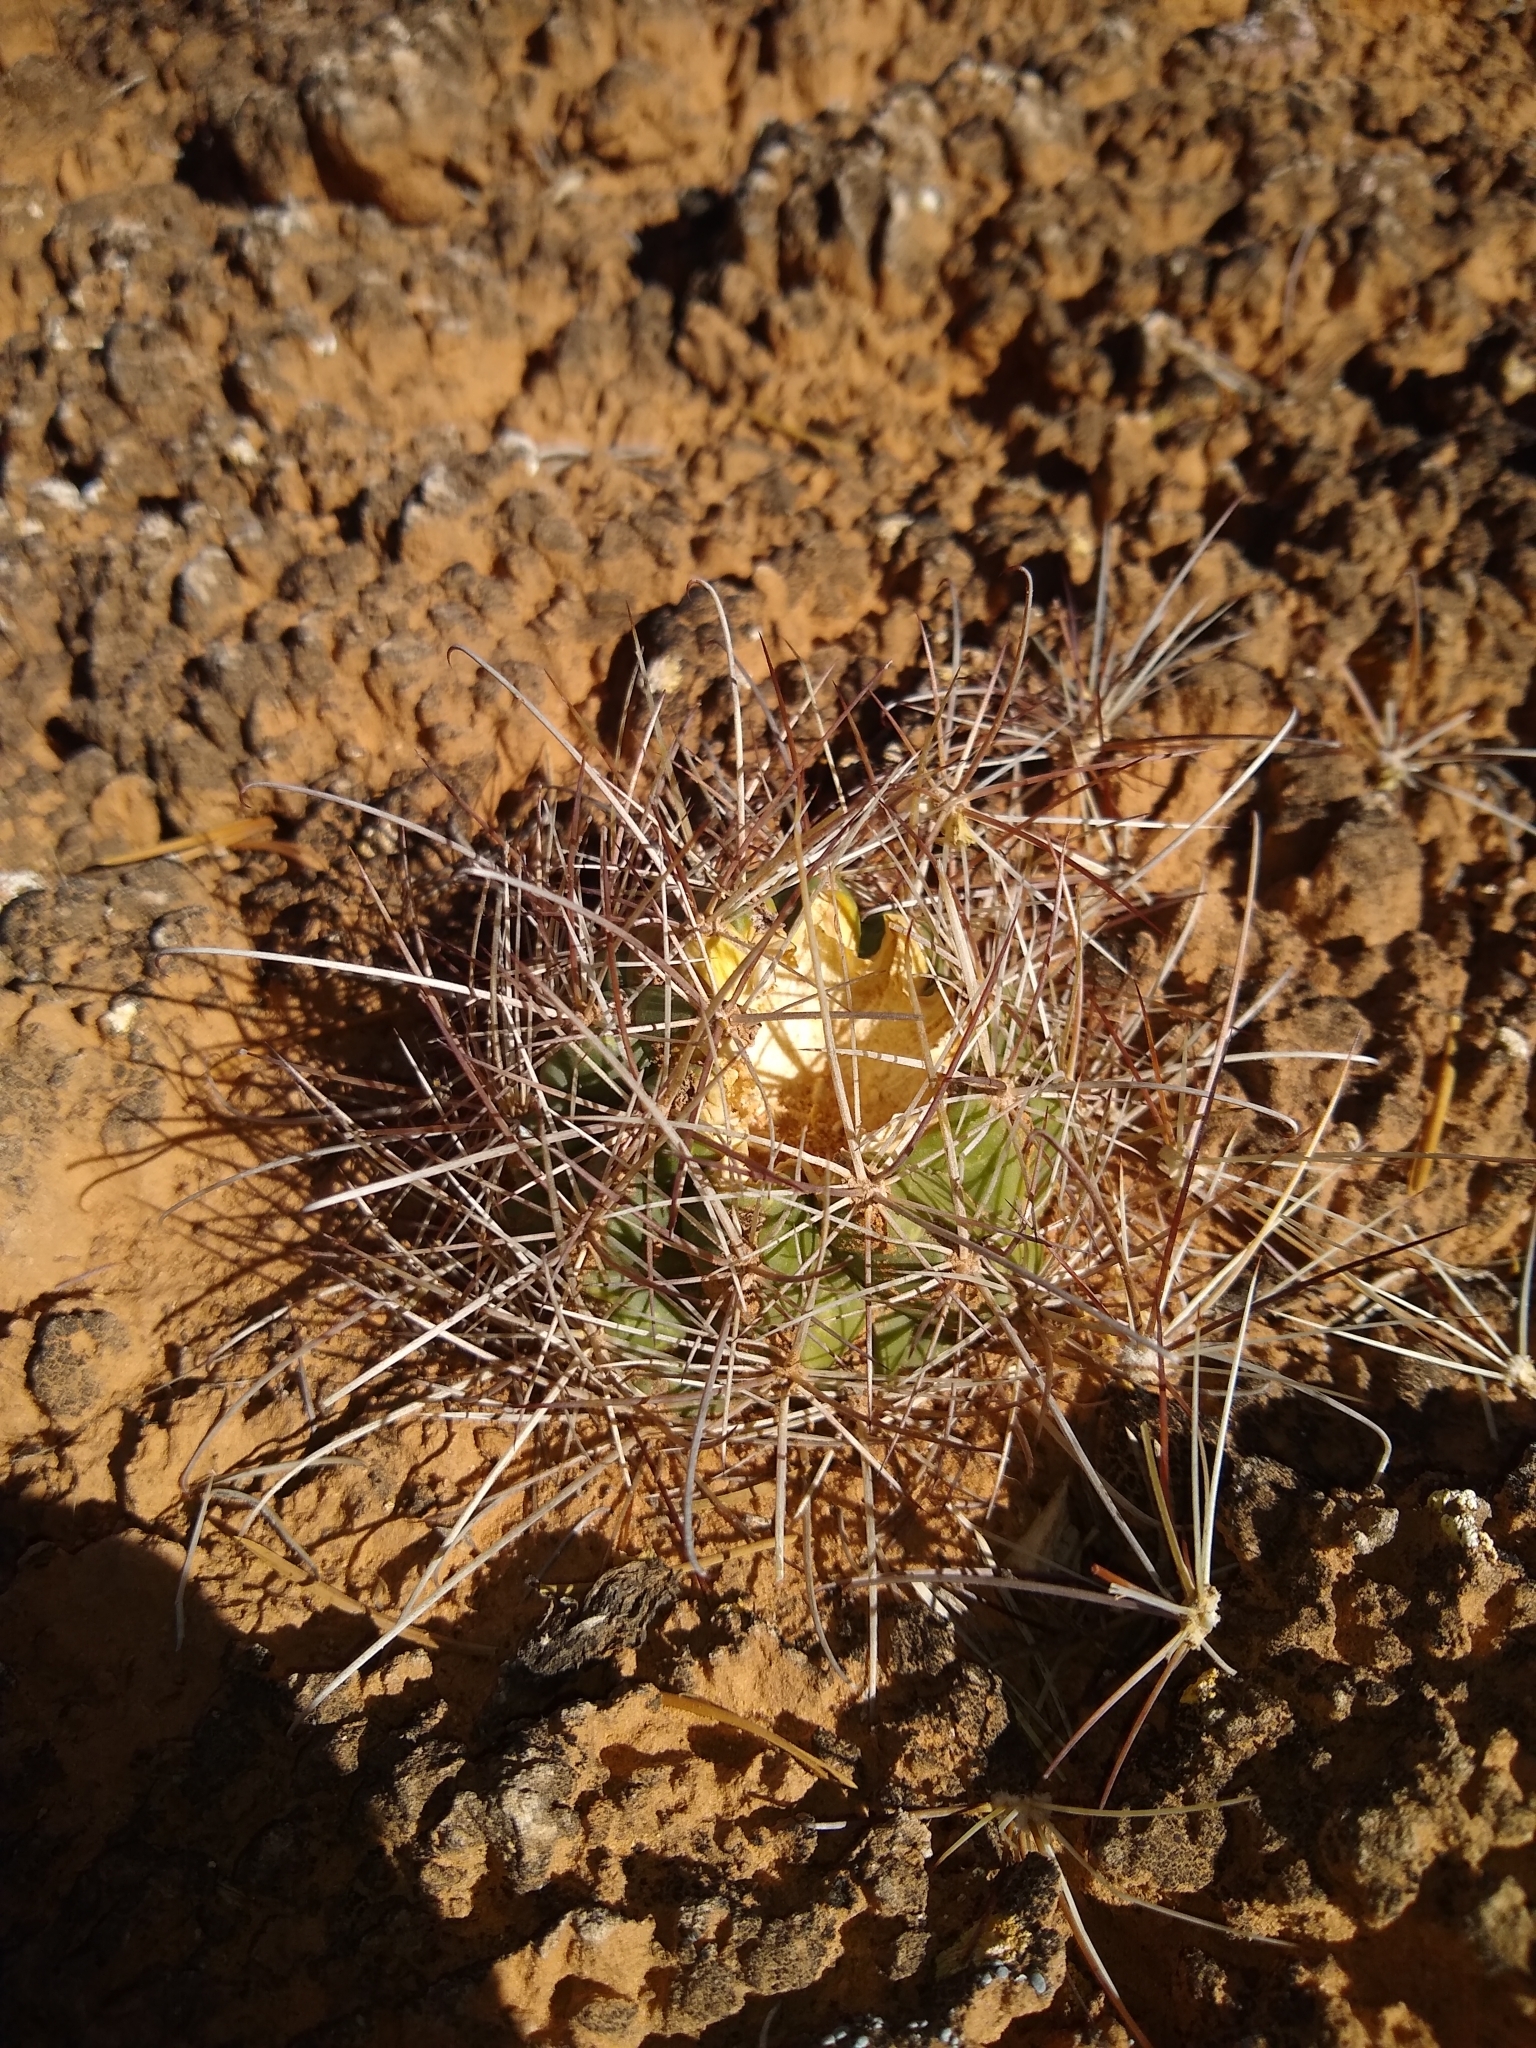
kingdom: Plantae
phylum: Tracheophyta
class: Magnoliopsida
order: Caryophyllales
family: Cactaceae
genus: Sclerocactus
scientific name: Sclerocactus parviflorus
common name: Small-flower fishhook cactus
